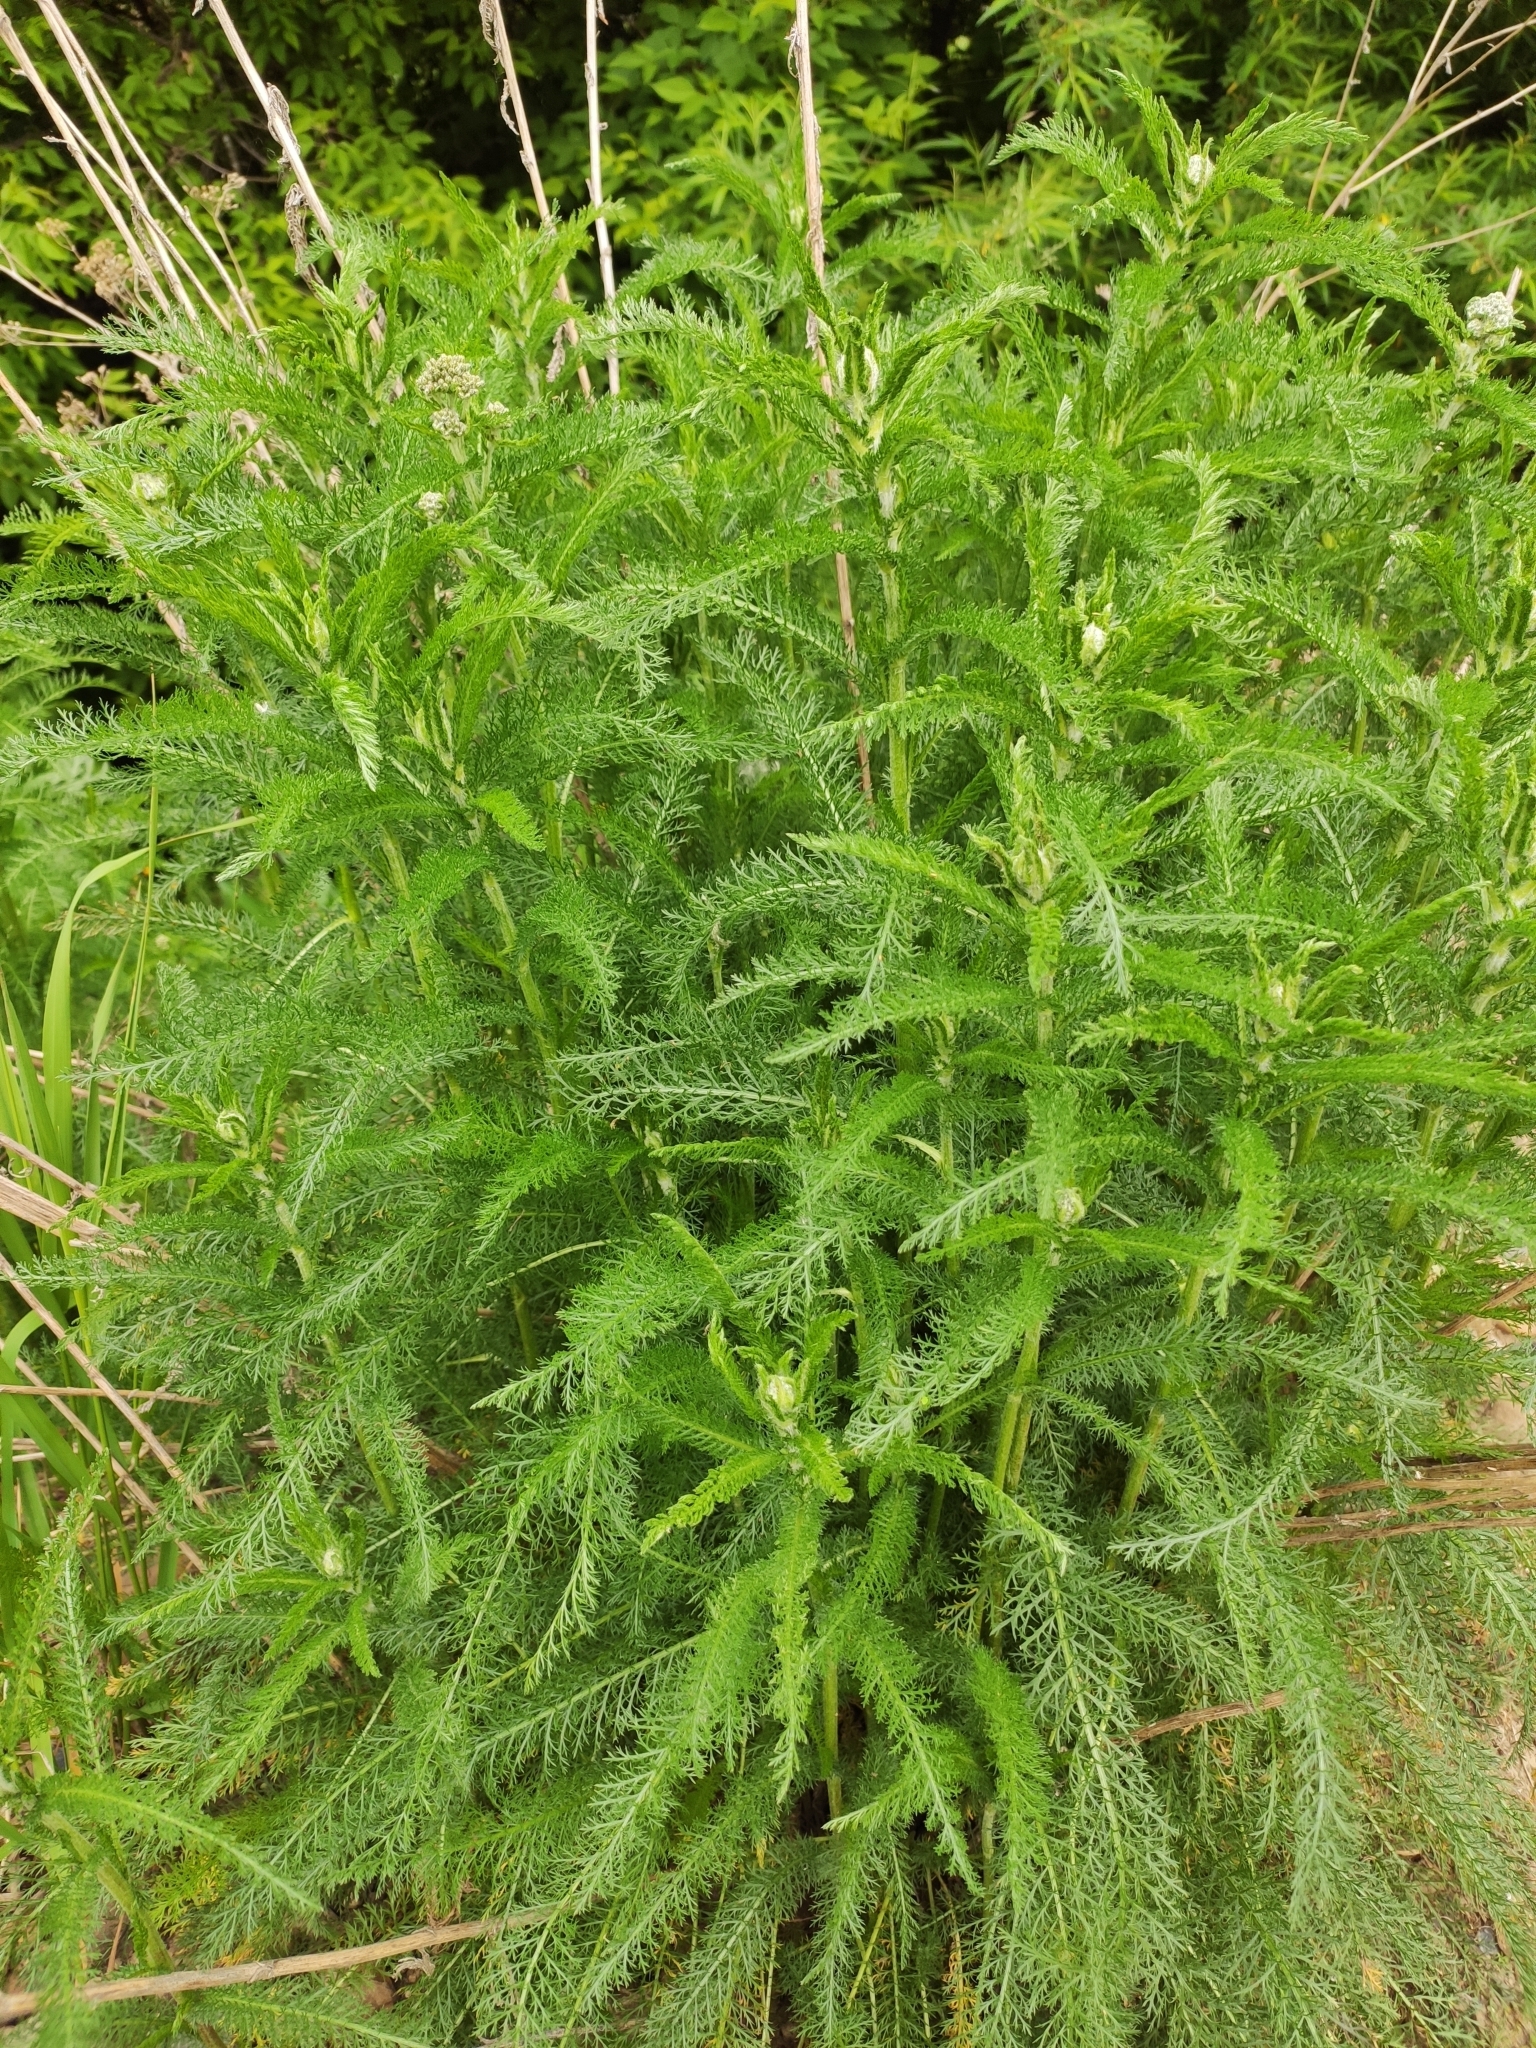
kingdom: Plantae
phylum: Tracheophyta
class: Magnoliopsida
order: Asterales
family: Asteraceae
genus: Achillea
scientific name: Achillea millefolium
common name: Yarrow
